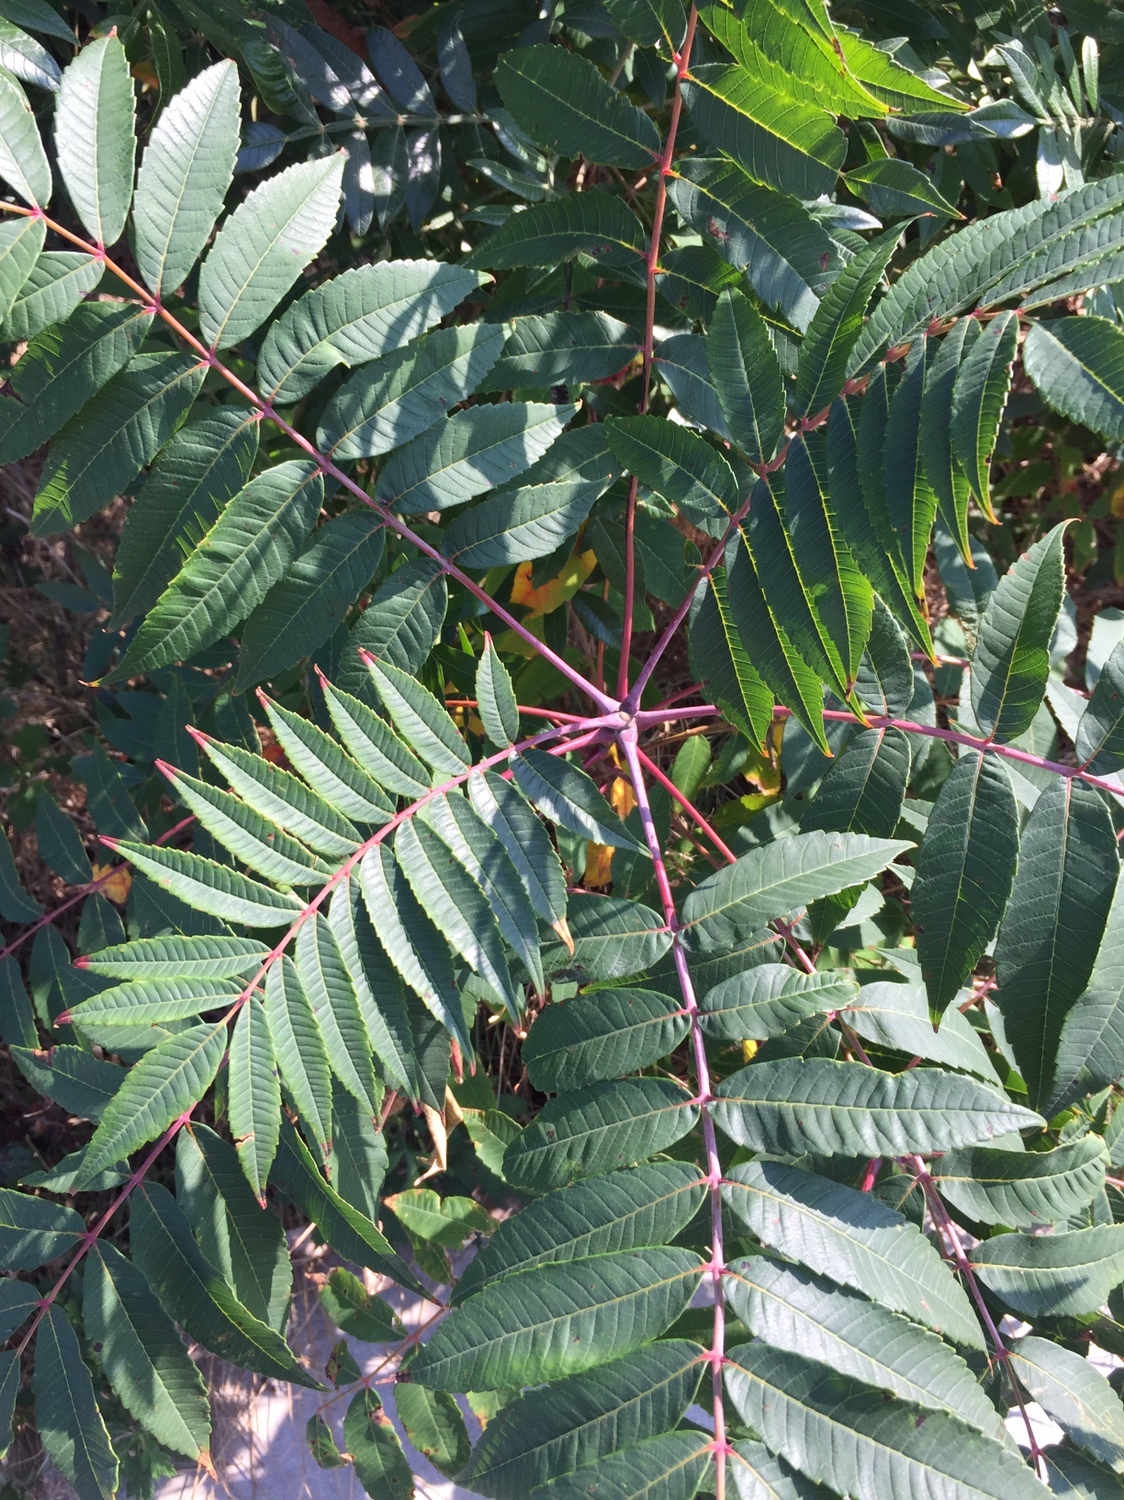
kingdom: Plantae
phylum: Tracheophyta
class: Magnoliopsida
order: Sapindales
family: Anacardiaceae
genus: Rhus
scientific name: Rhus glabra
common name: Scarlet sumac
